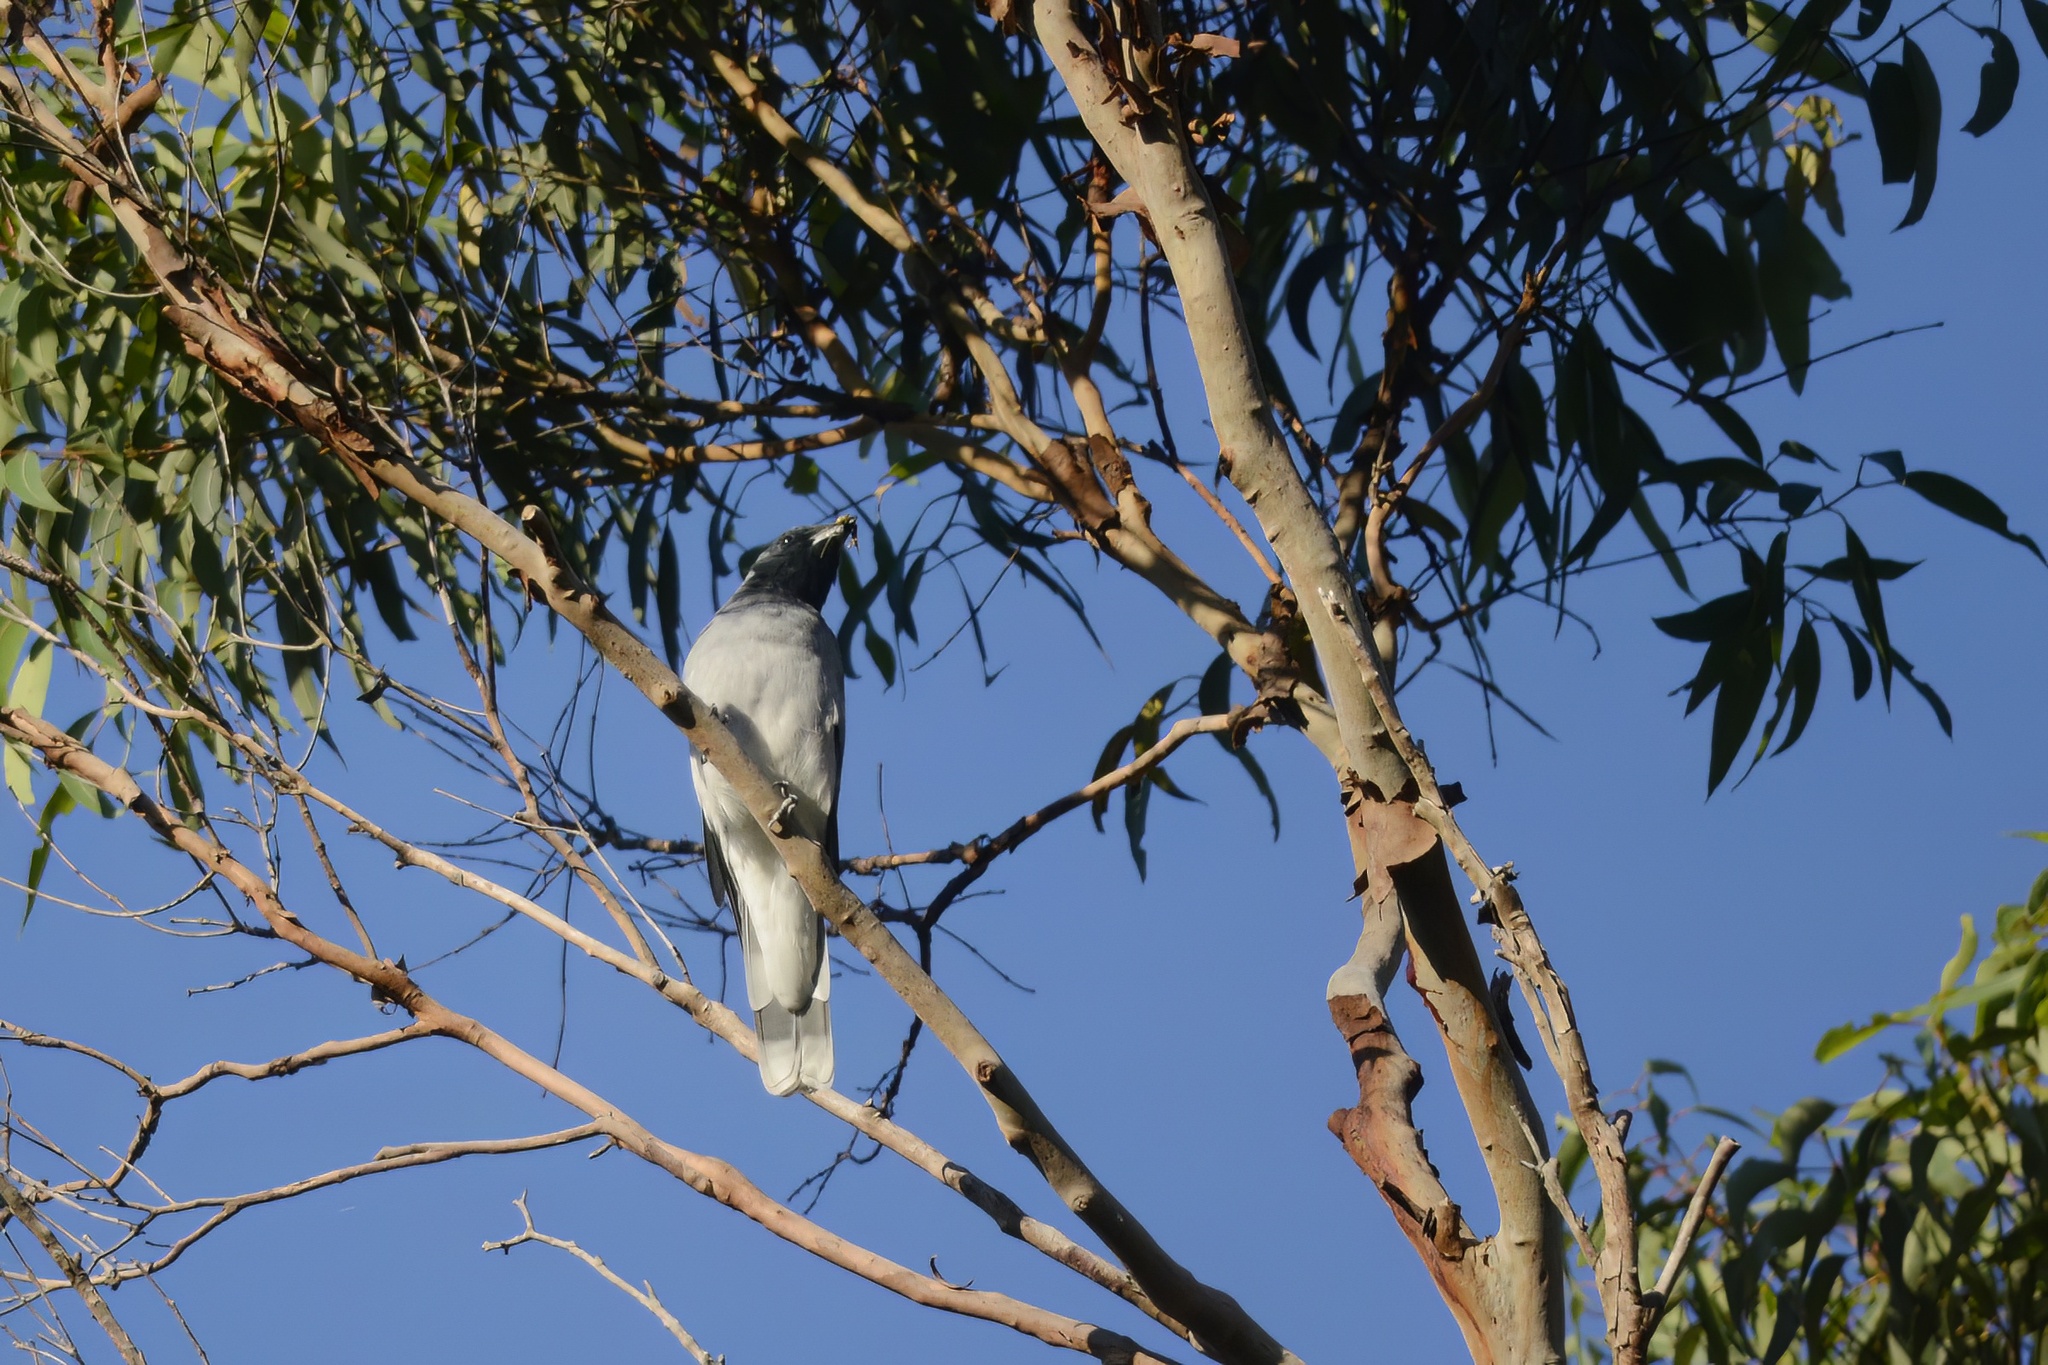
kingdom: Animalia
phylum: Chordata
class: Aves
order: Passeriformes
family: Campephagidae
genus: Coracina
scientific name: Coracina novaehollandiae
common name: Black-faced cuckooshrike
